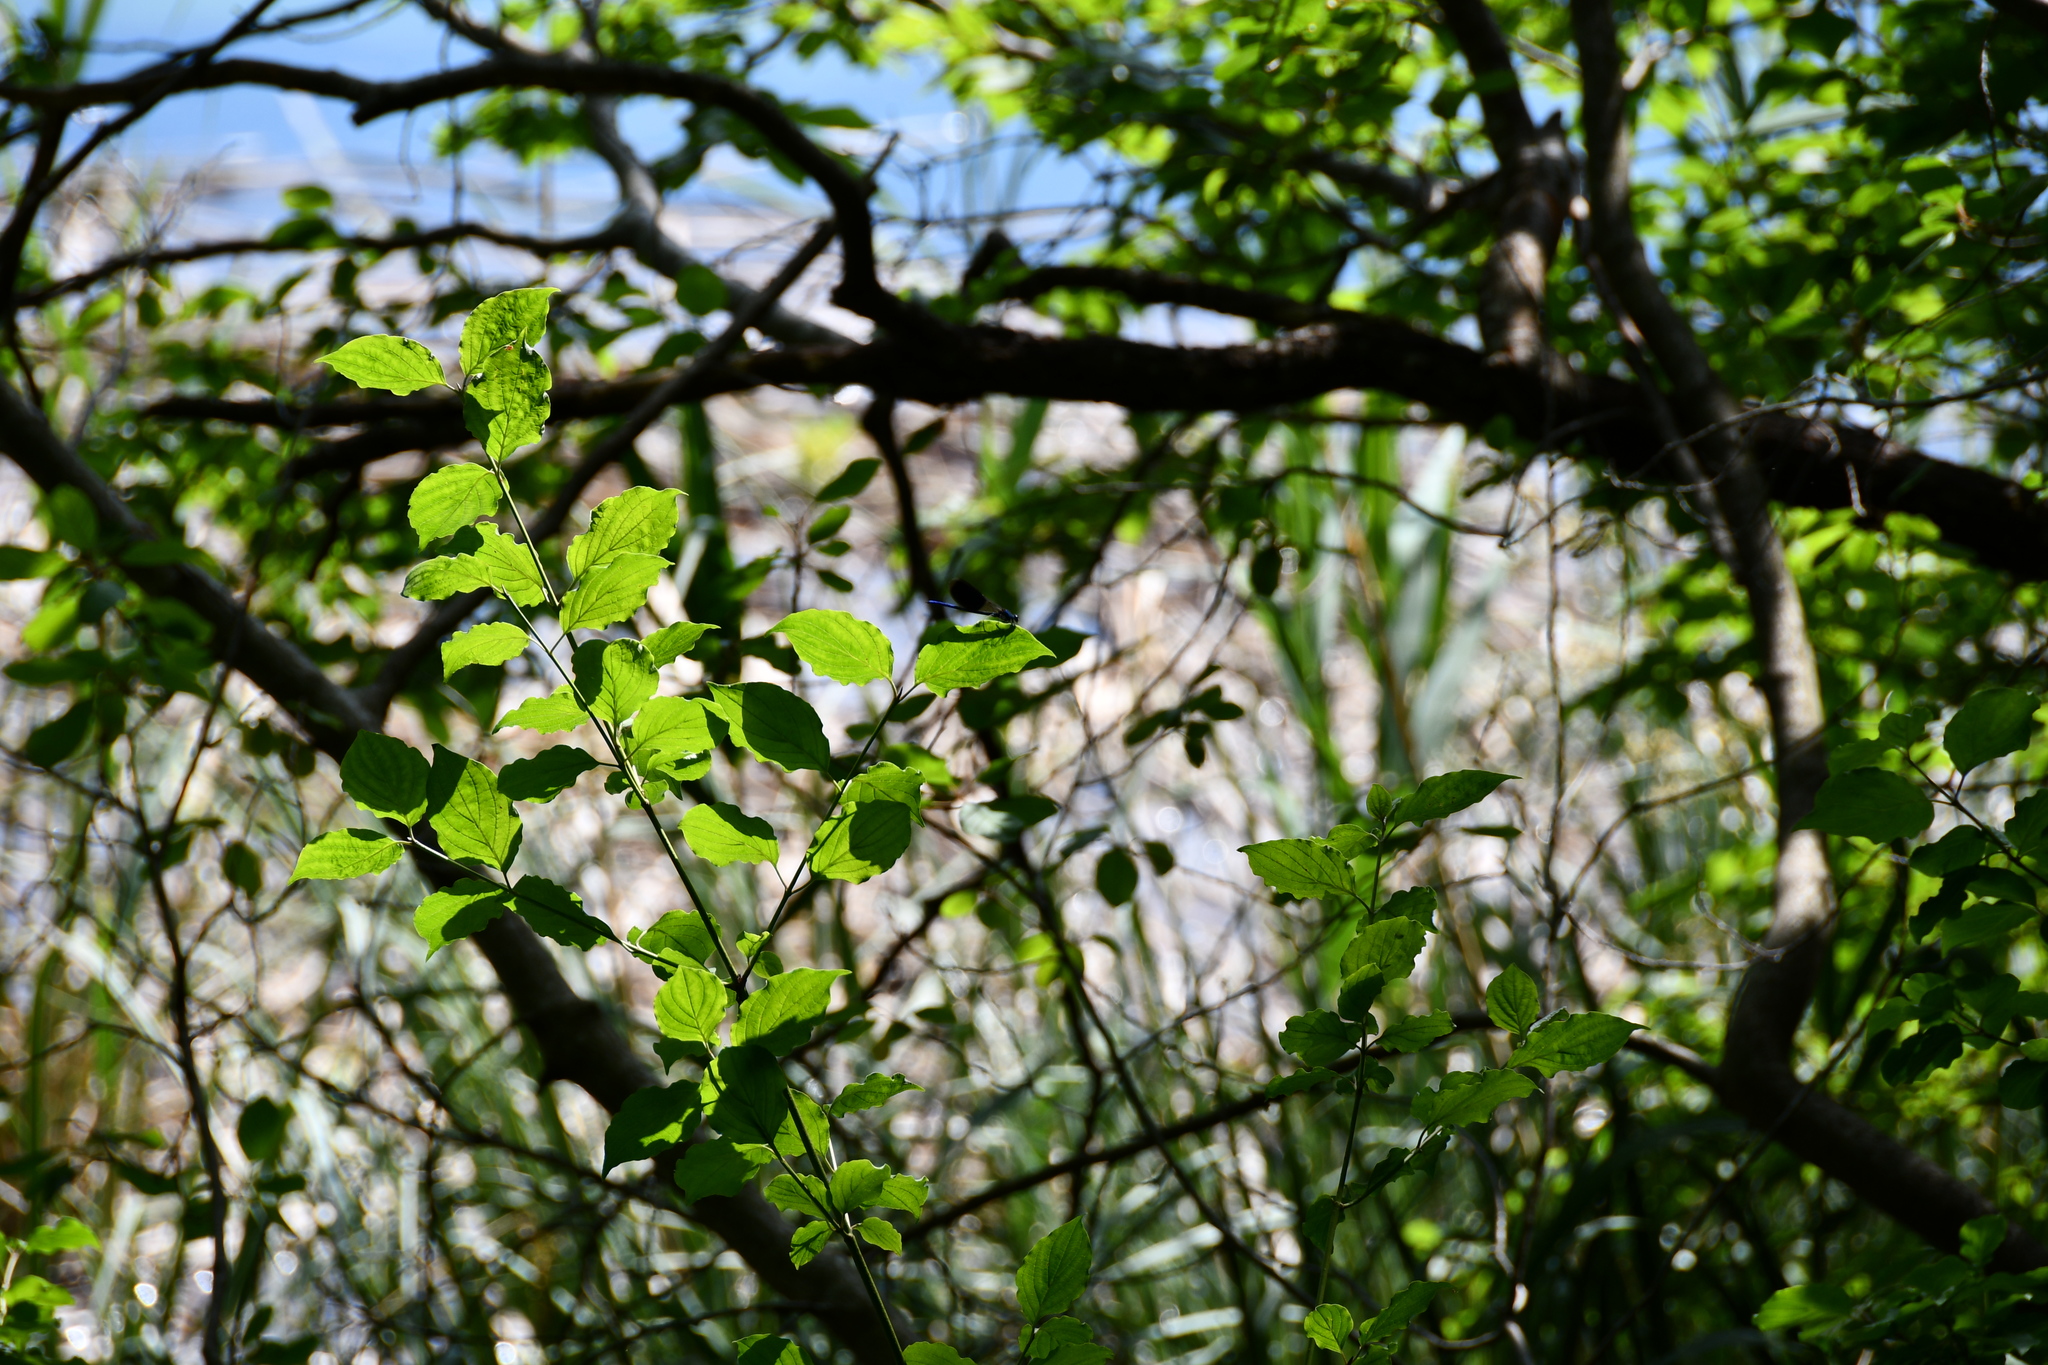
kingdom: Animalia
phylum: Arthropoda
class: Insecta
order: Odonata
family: Calopterygidae
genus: Calopteryx
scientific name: Calopteryx splendens
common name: Banded demoiselle
